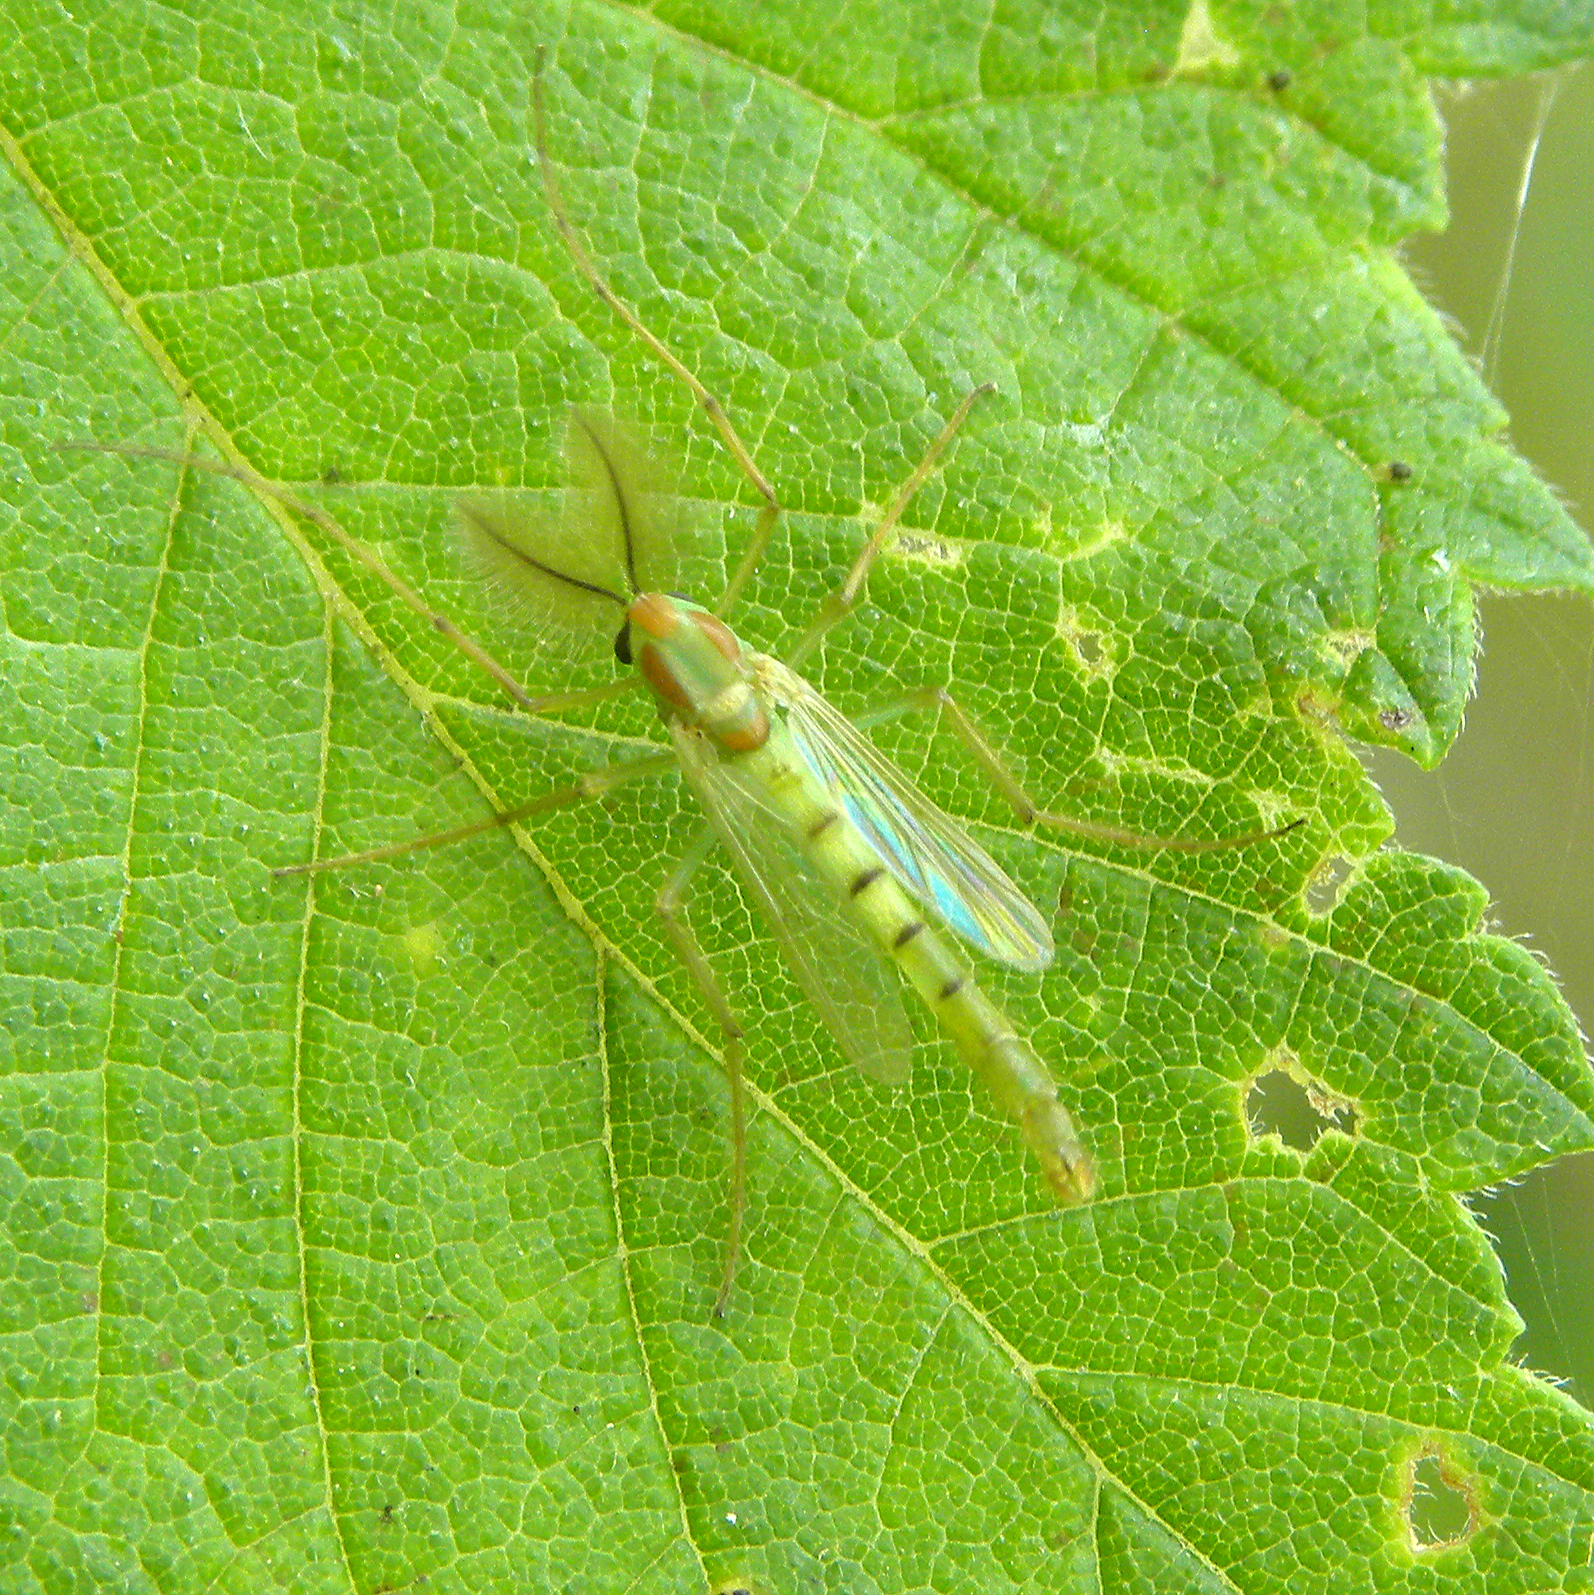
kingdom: Animalia
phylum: Arthropoda
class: Insecta
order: Diptera
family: Chironomidae
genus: Axarus
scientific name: Axarus
